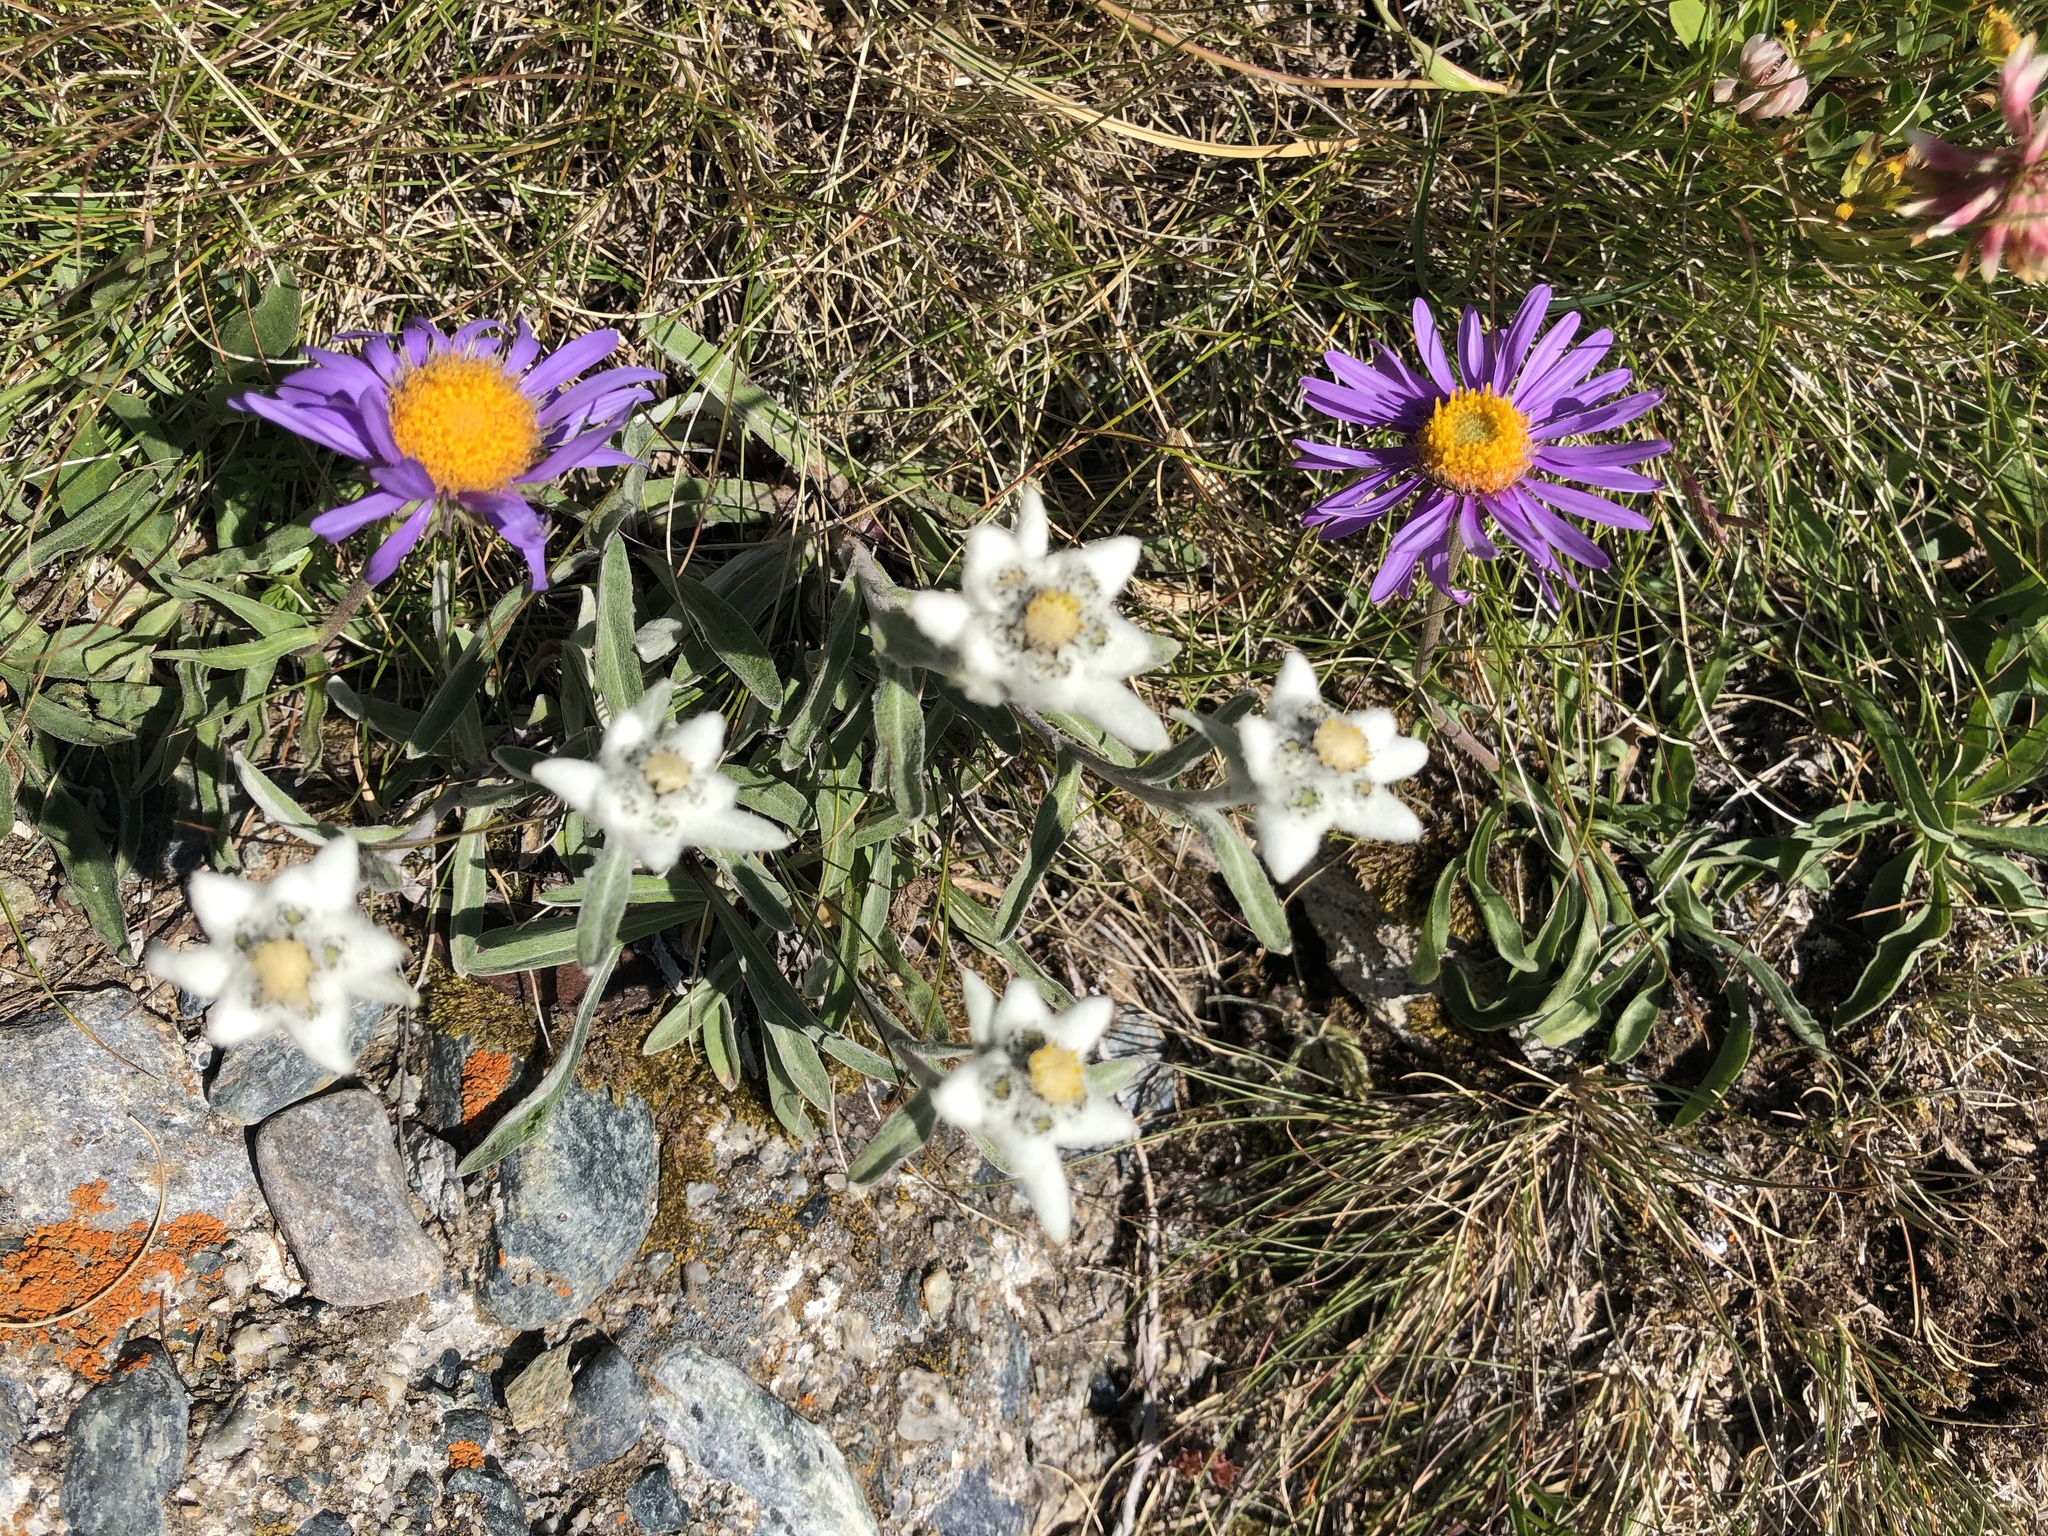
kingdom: Plantae
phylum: Tracheophyta
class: Magnoliopsida
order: Asterales
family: Asteraceae
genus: Leontopodium
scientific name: Leontopodium nivale
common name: Edelweiss
